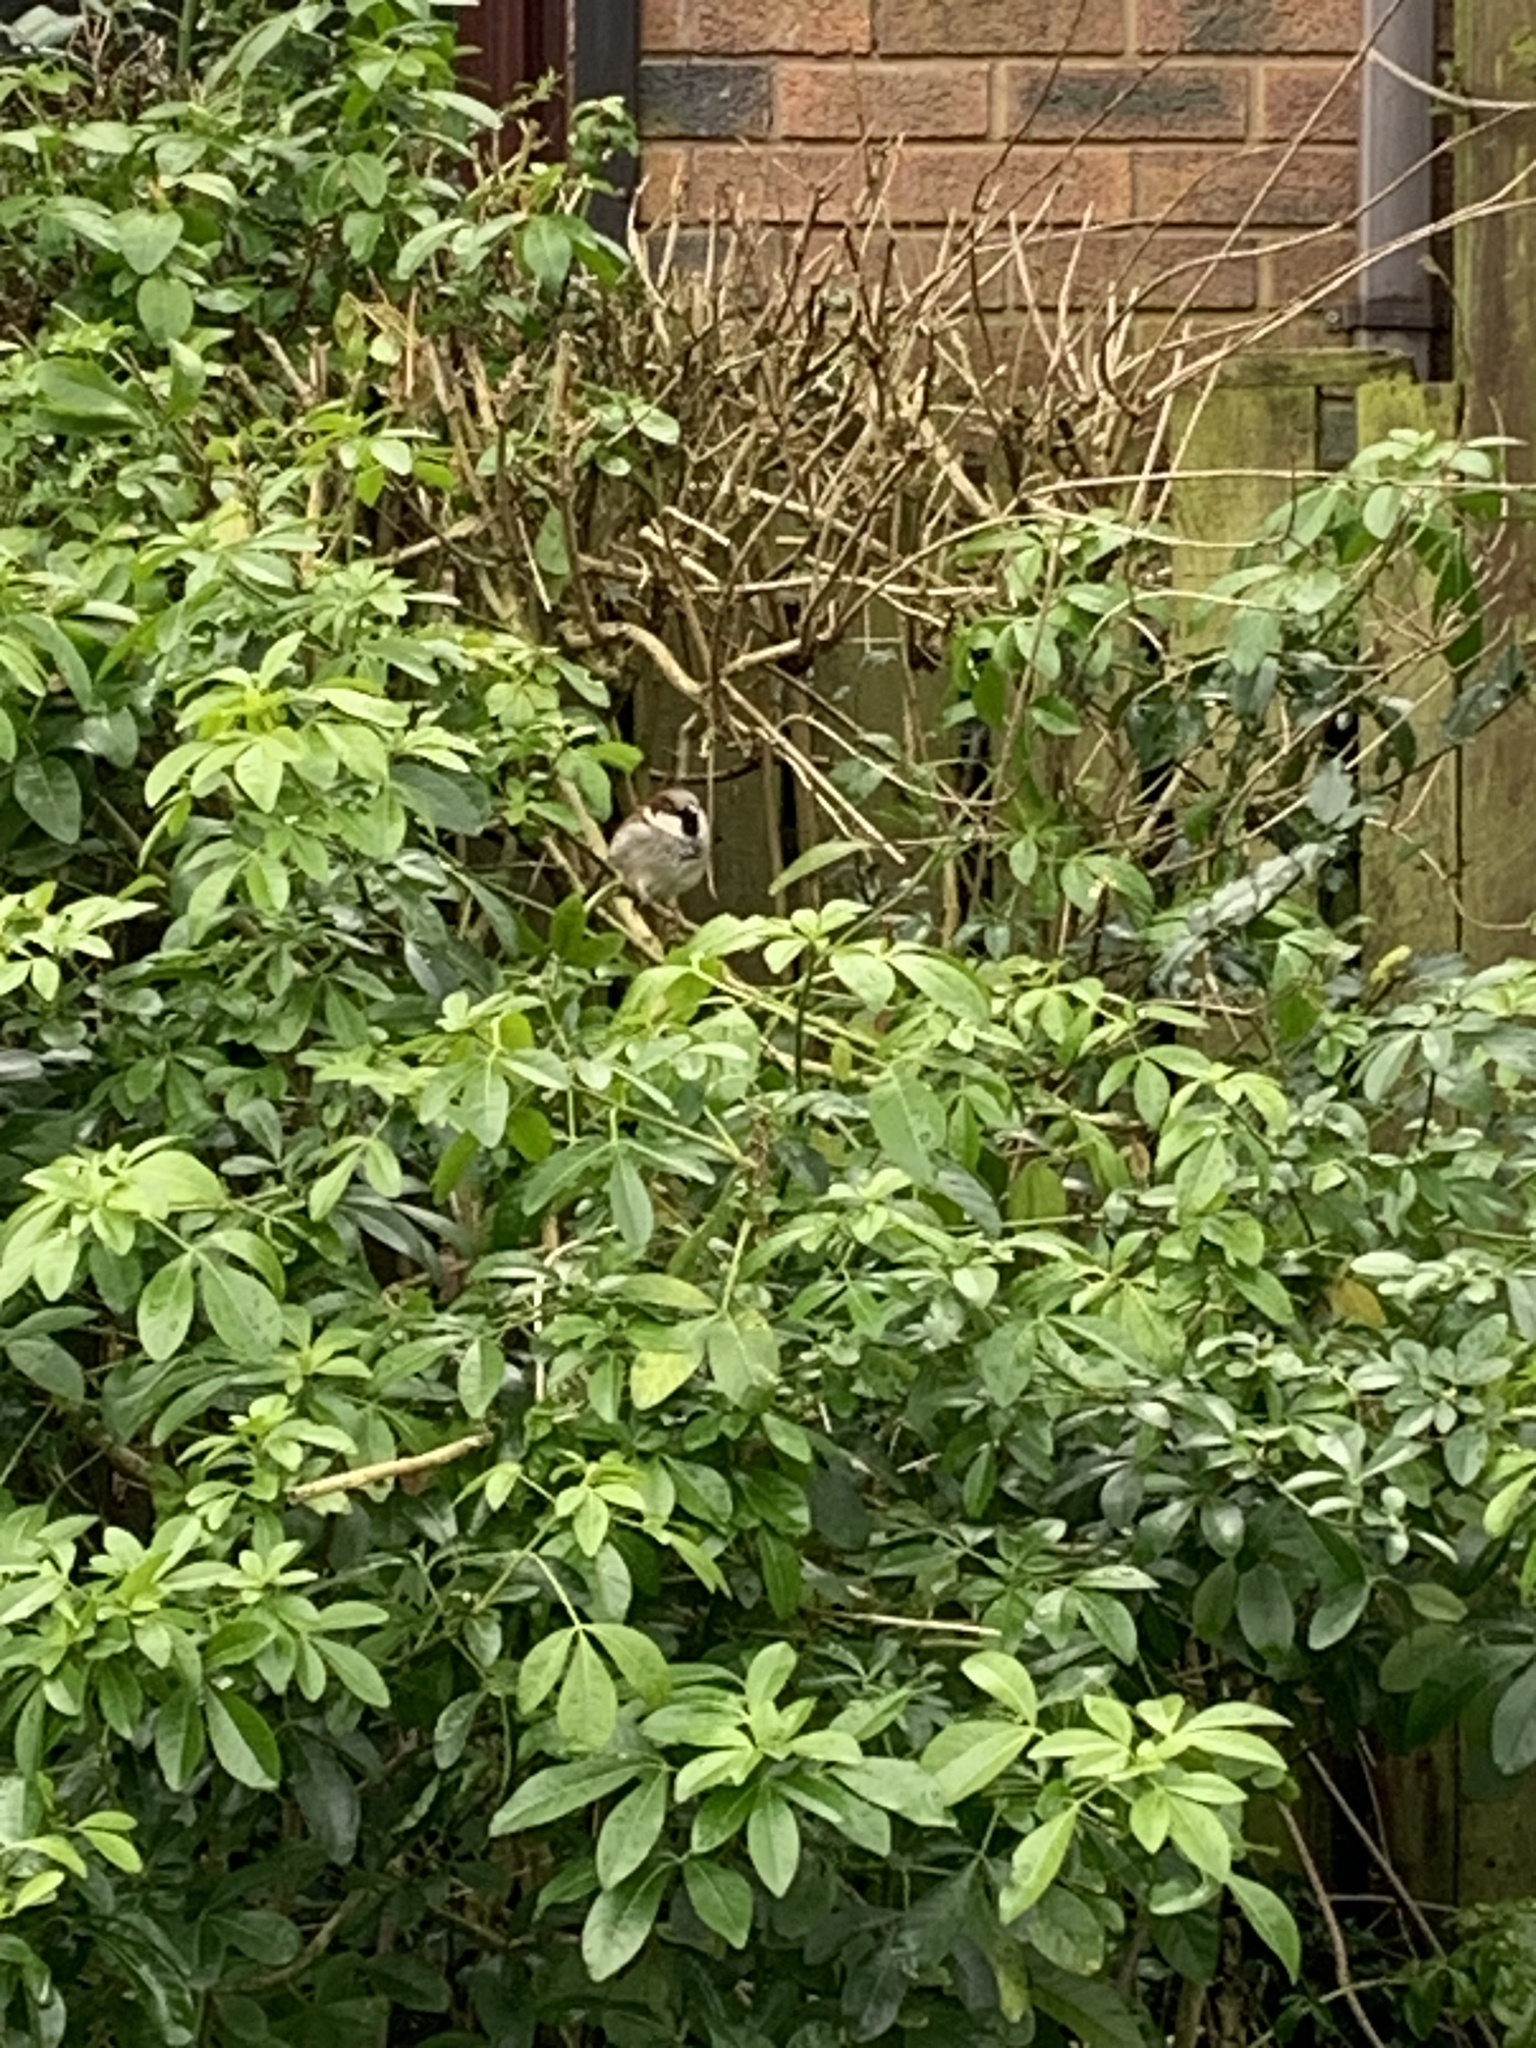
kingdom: Animalia
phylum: Chordata
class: Aves
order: Passeriformes
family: Passeridae
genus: Passer
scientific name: Passer domesticus
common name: House sparrow
